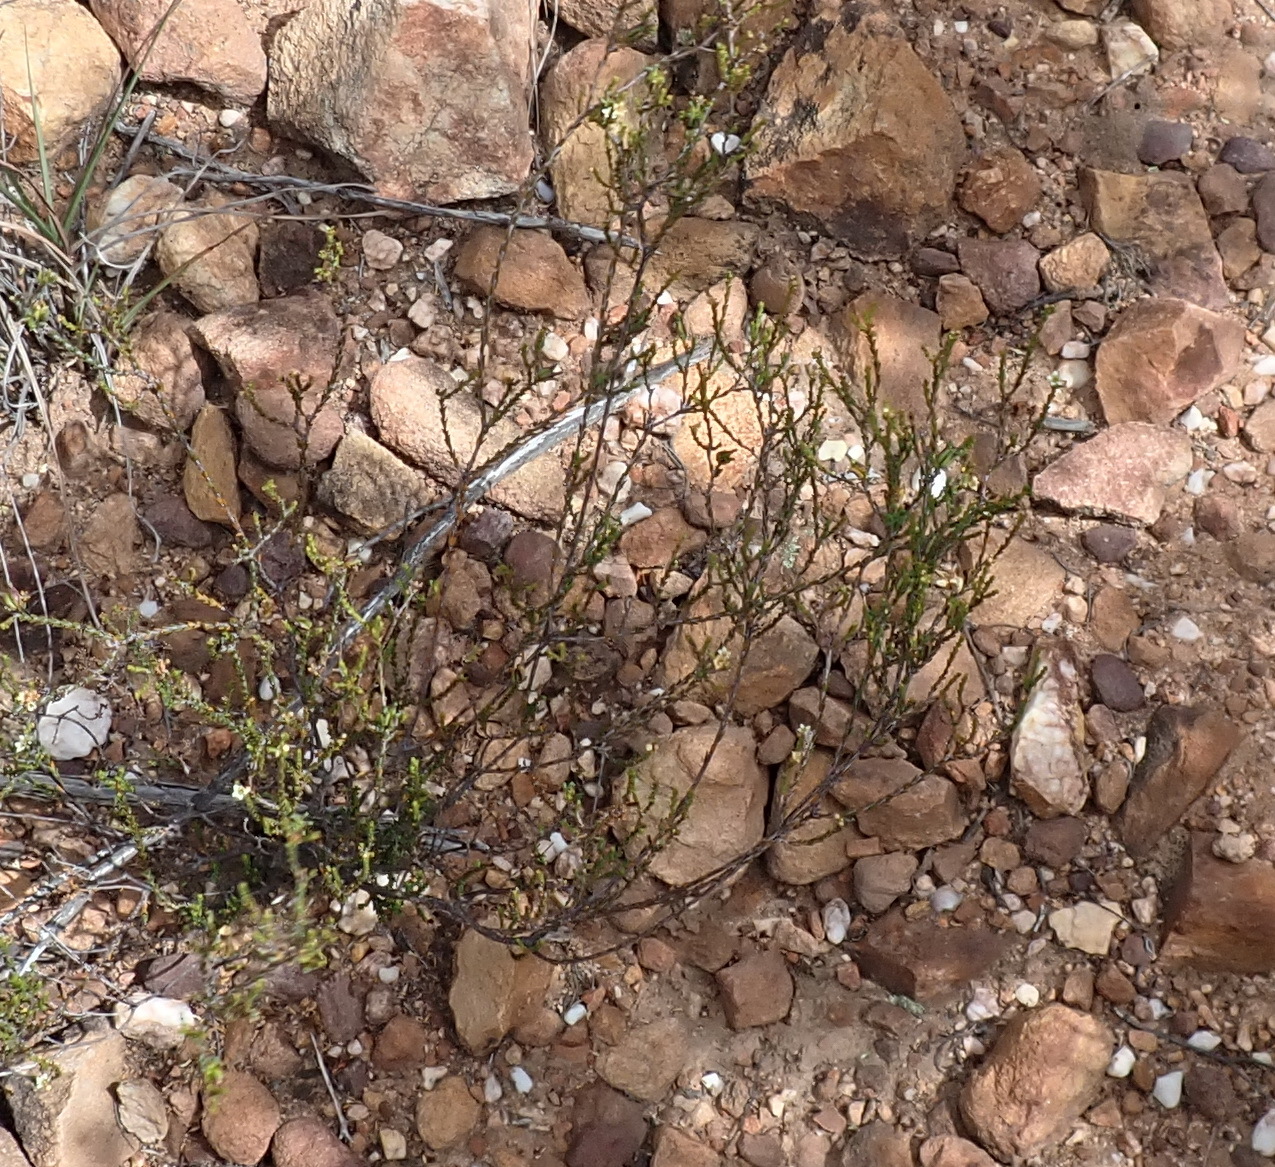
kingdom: Plantae
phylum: Tracheophyta
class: Magnoliopsida
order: Sapindales
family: Rutaceae
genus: Diosma
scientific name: Diosma prama
